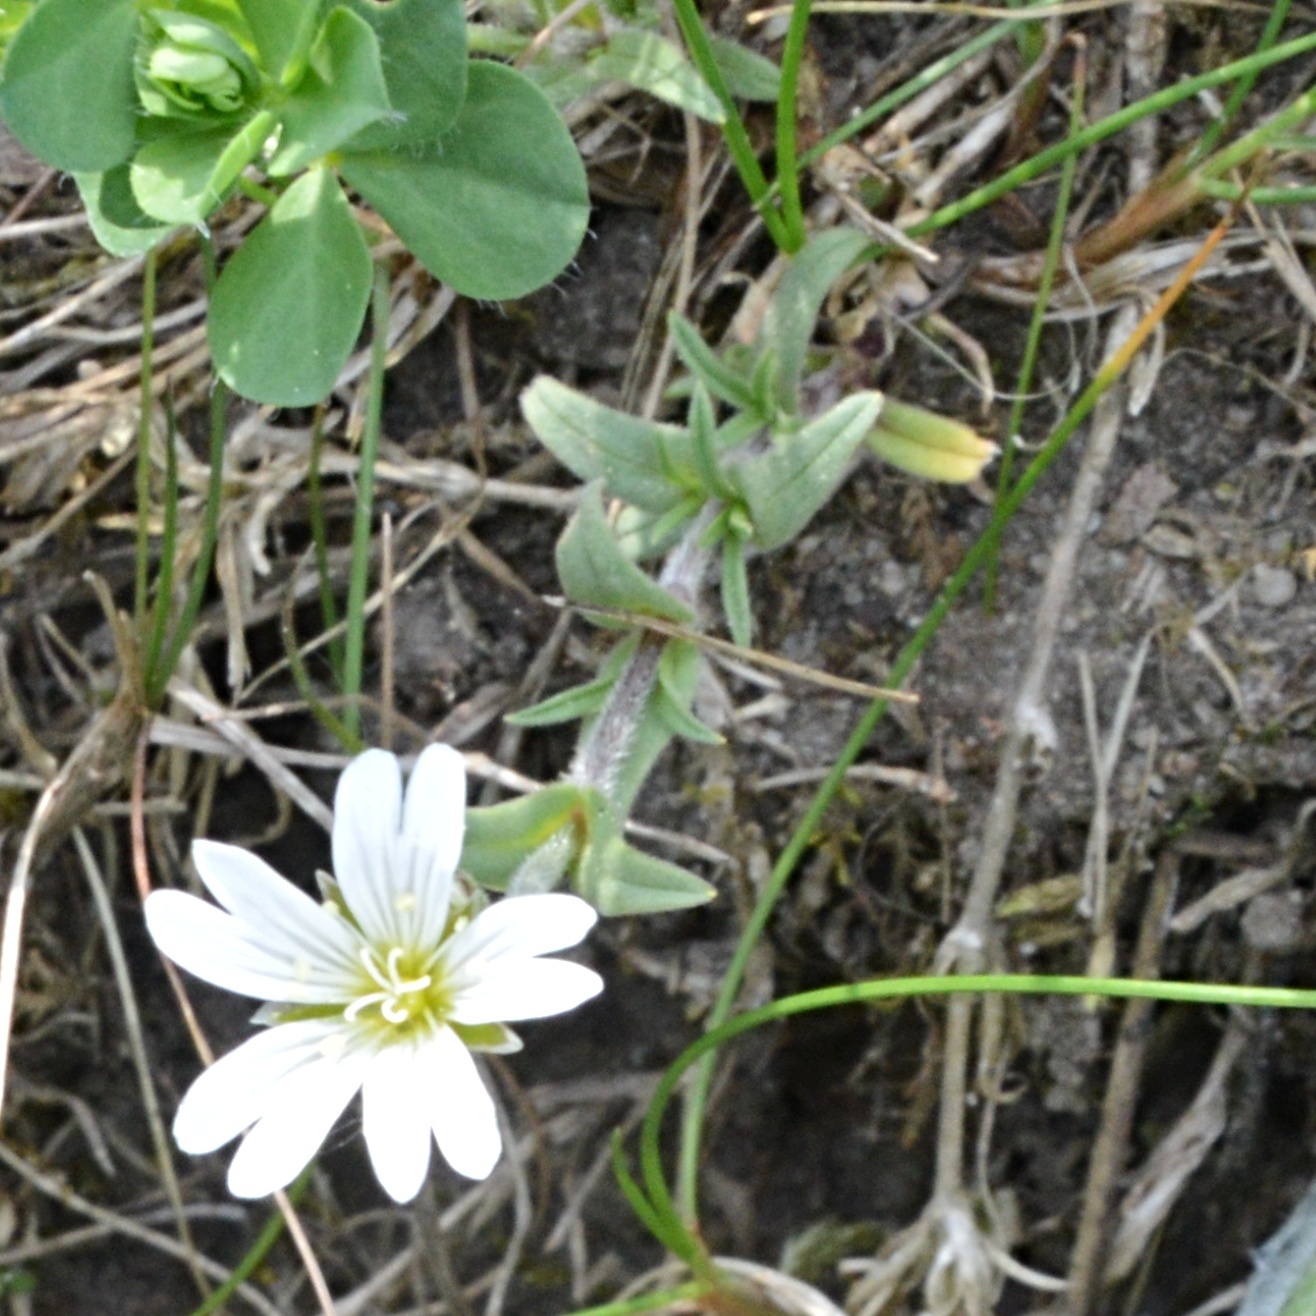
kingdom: Plantae
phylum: Tracheophyta
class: Magnoliopsida
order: Caryophyllales
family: Caryophyllaceae
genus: Cerastium
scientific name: Cerastium arvense
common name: Field mouse-ear
